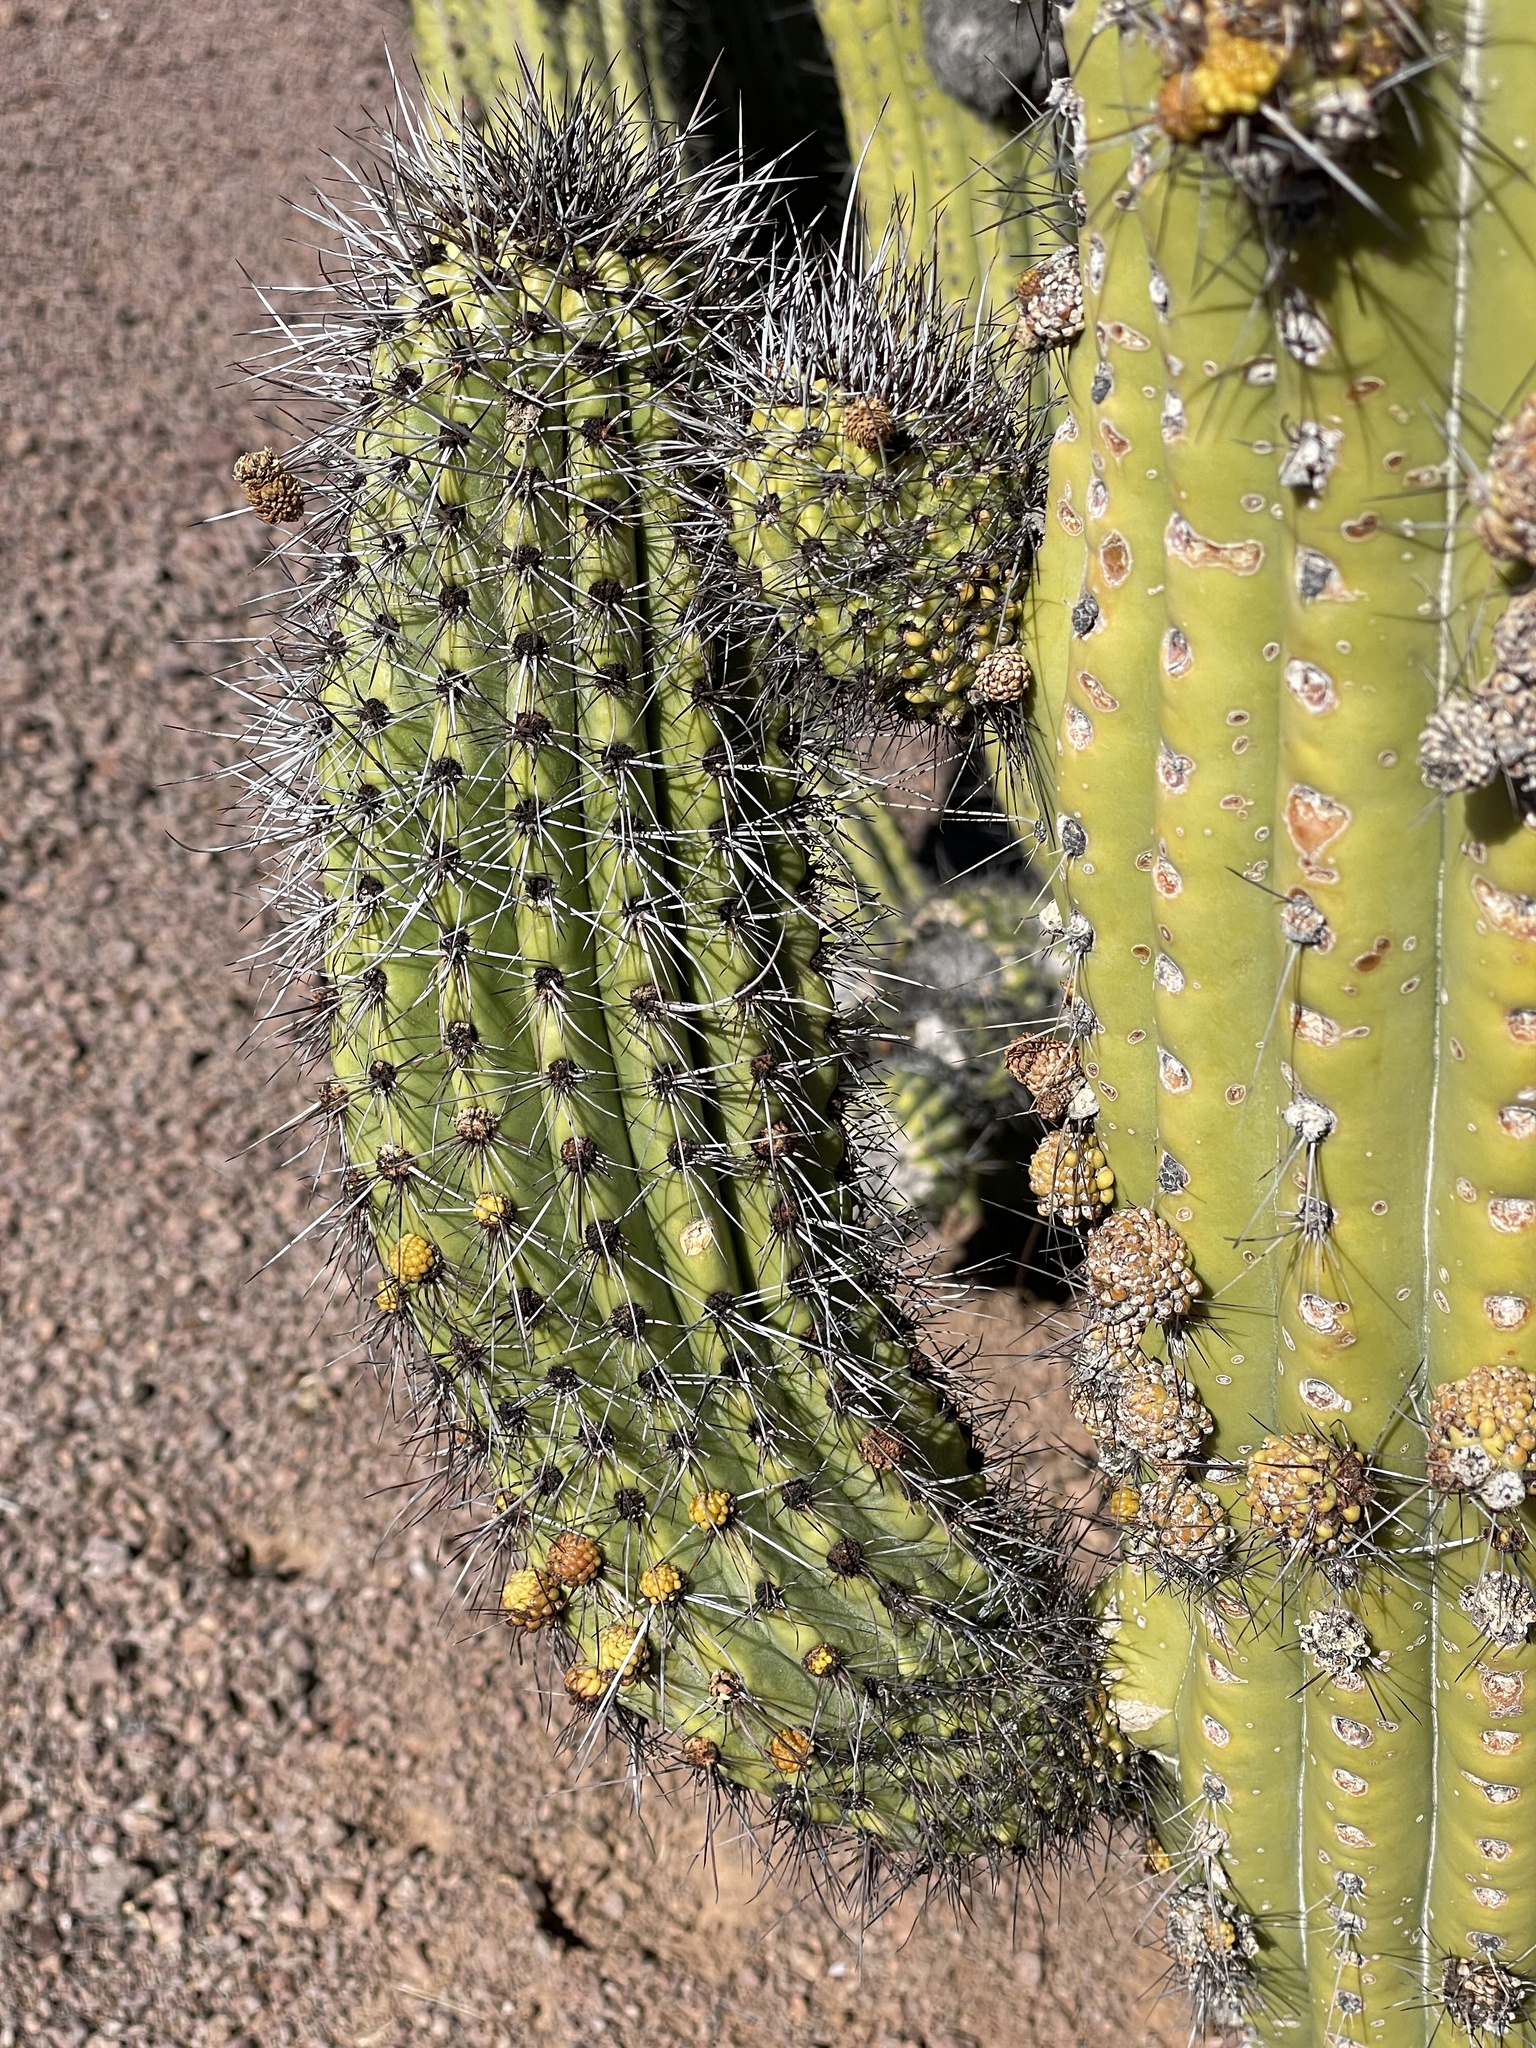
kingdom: Plantae
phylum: Tracheophyta
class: Magnoliopsida
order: Caryophyllales
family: Cactaceae
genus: Stenocereus
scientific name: Stenocereus thurberi
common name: Organ pipe cactus
